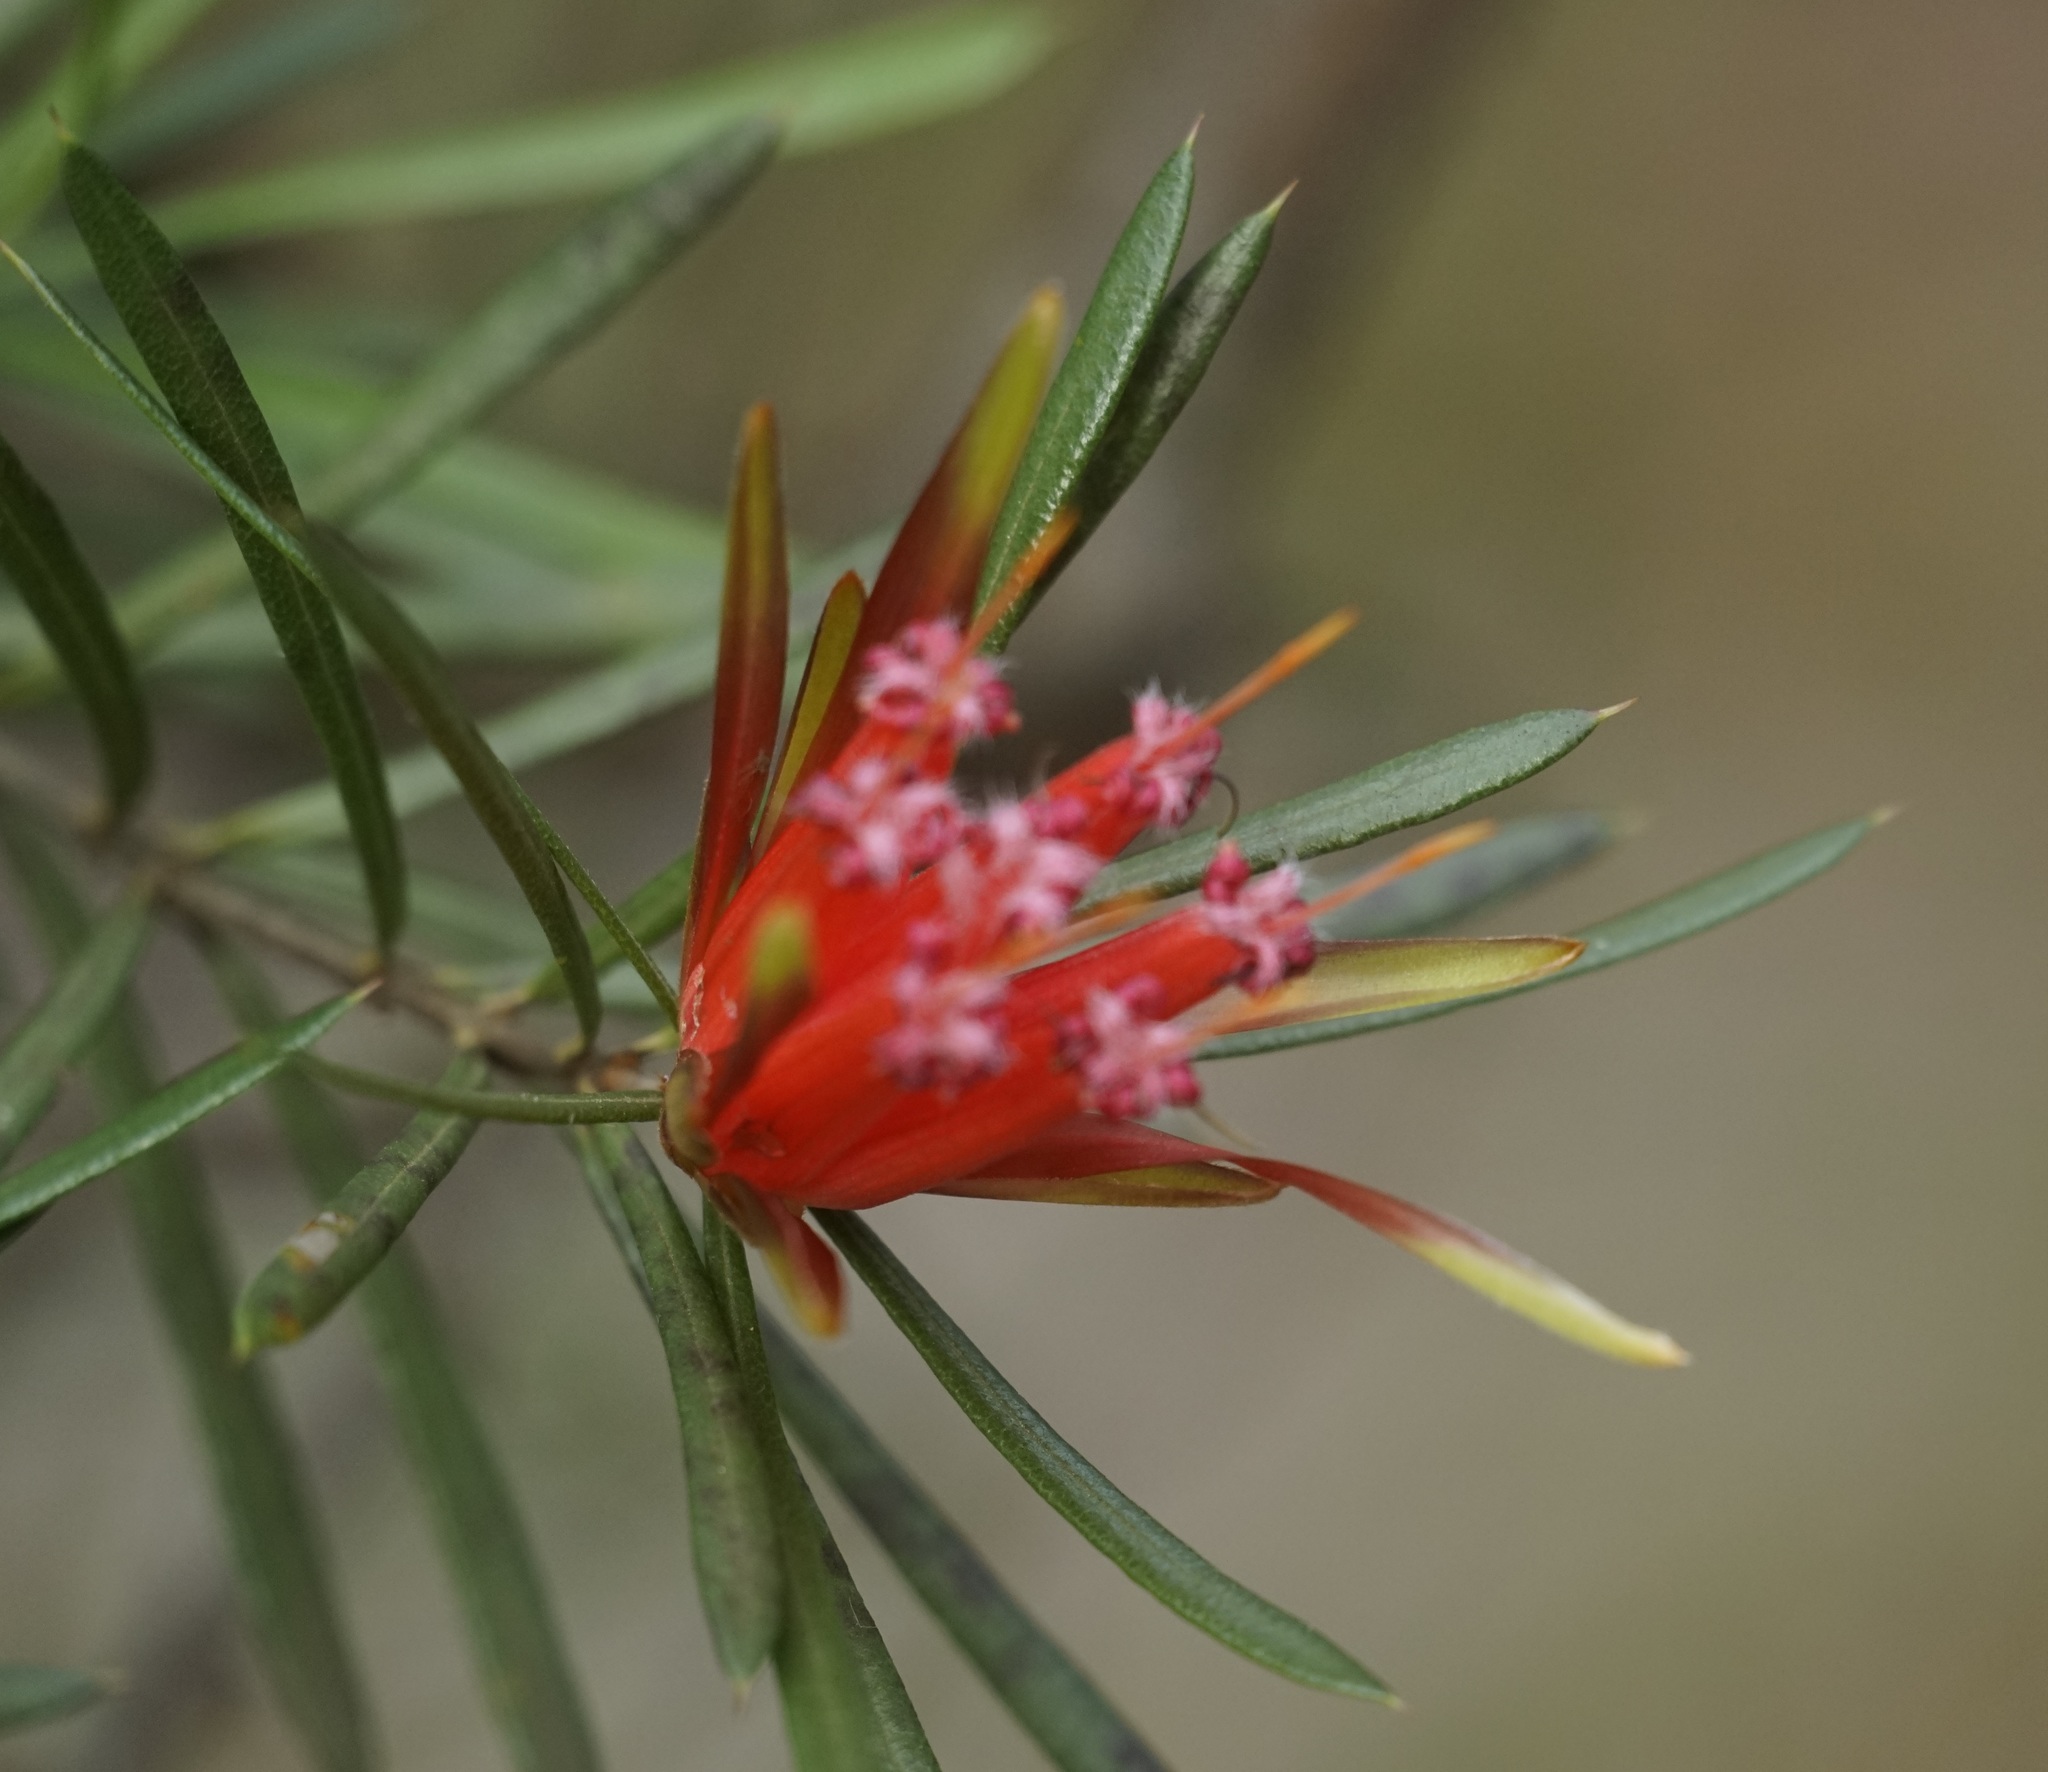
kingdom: Plantae
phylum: Tracheophyta
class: Magnoliopsida
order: Proteales
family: Proteaceae
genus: Lambertia
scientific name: Lambertia formosa
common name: Mountain-devil
